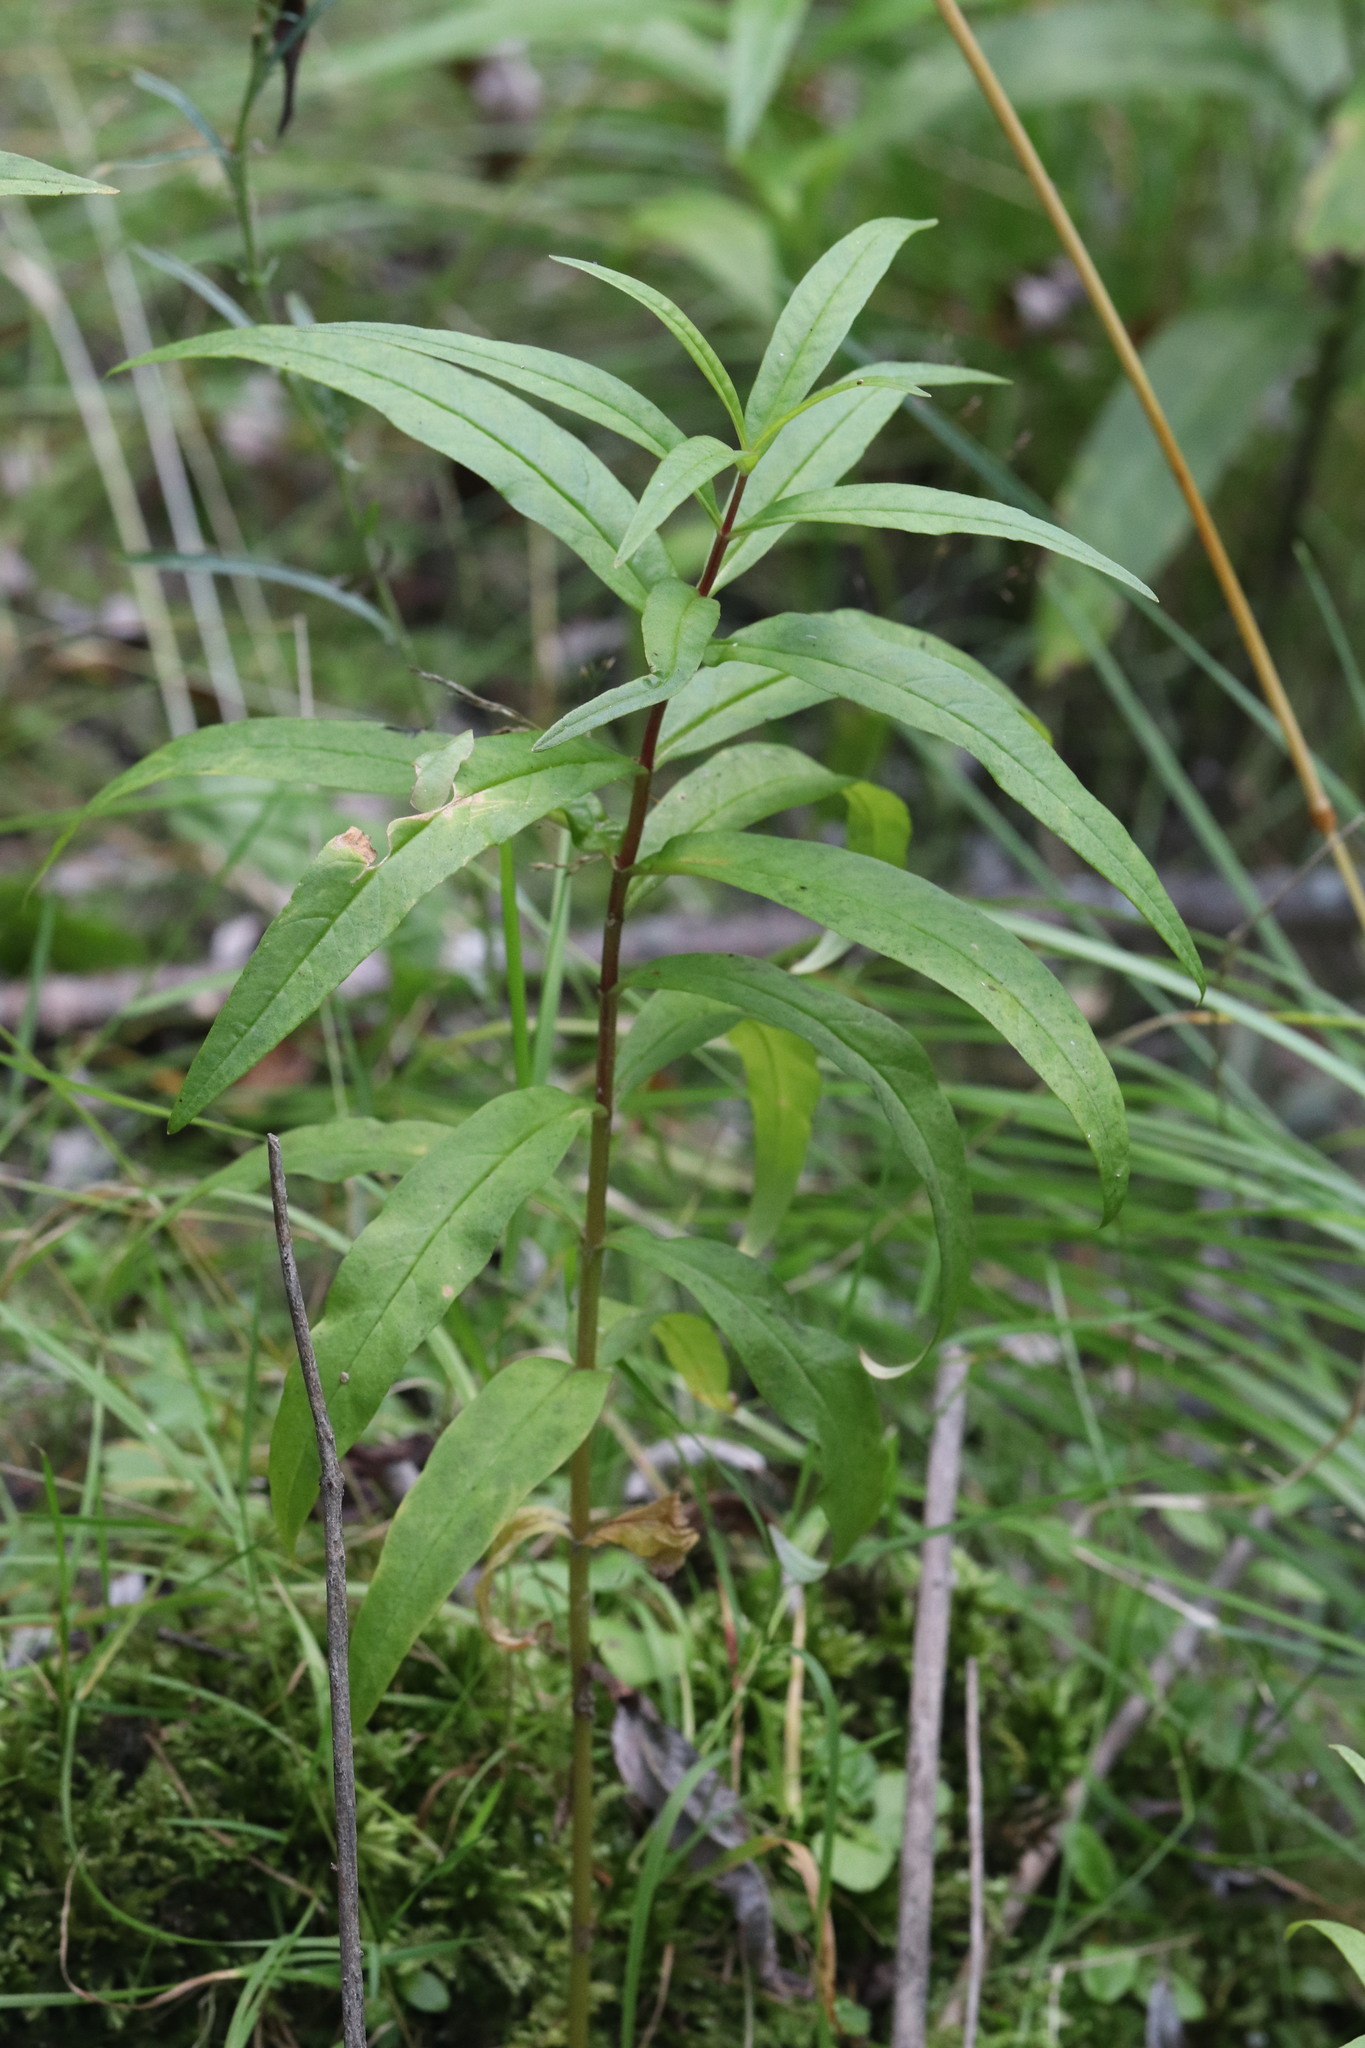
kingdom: Plantae
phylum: Tracheophyta
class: Magnoliopsida
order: Ericales
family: Primulaceae
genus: Lysimachia
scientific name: Lysimachia thyrsiflora
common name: Tufted loosestrife
